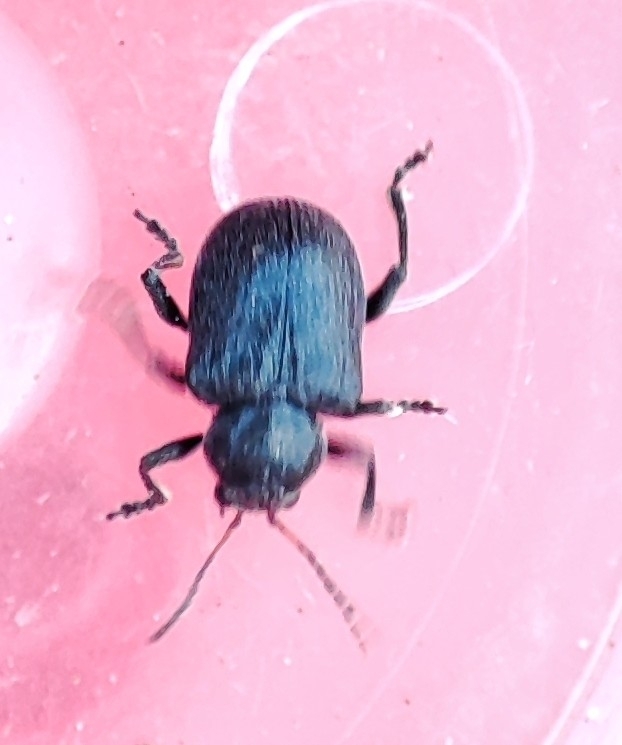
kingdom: Animalia
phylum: Arthropoda
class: Insecta
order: Coleoptera
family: Chrysomelidae
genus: Bromius
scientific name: Bromius obscurus
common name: Western grape rootworm
